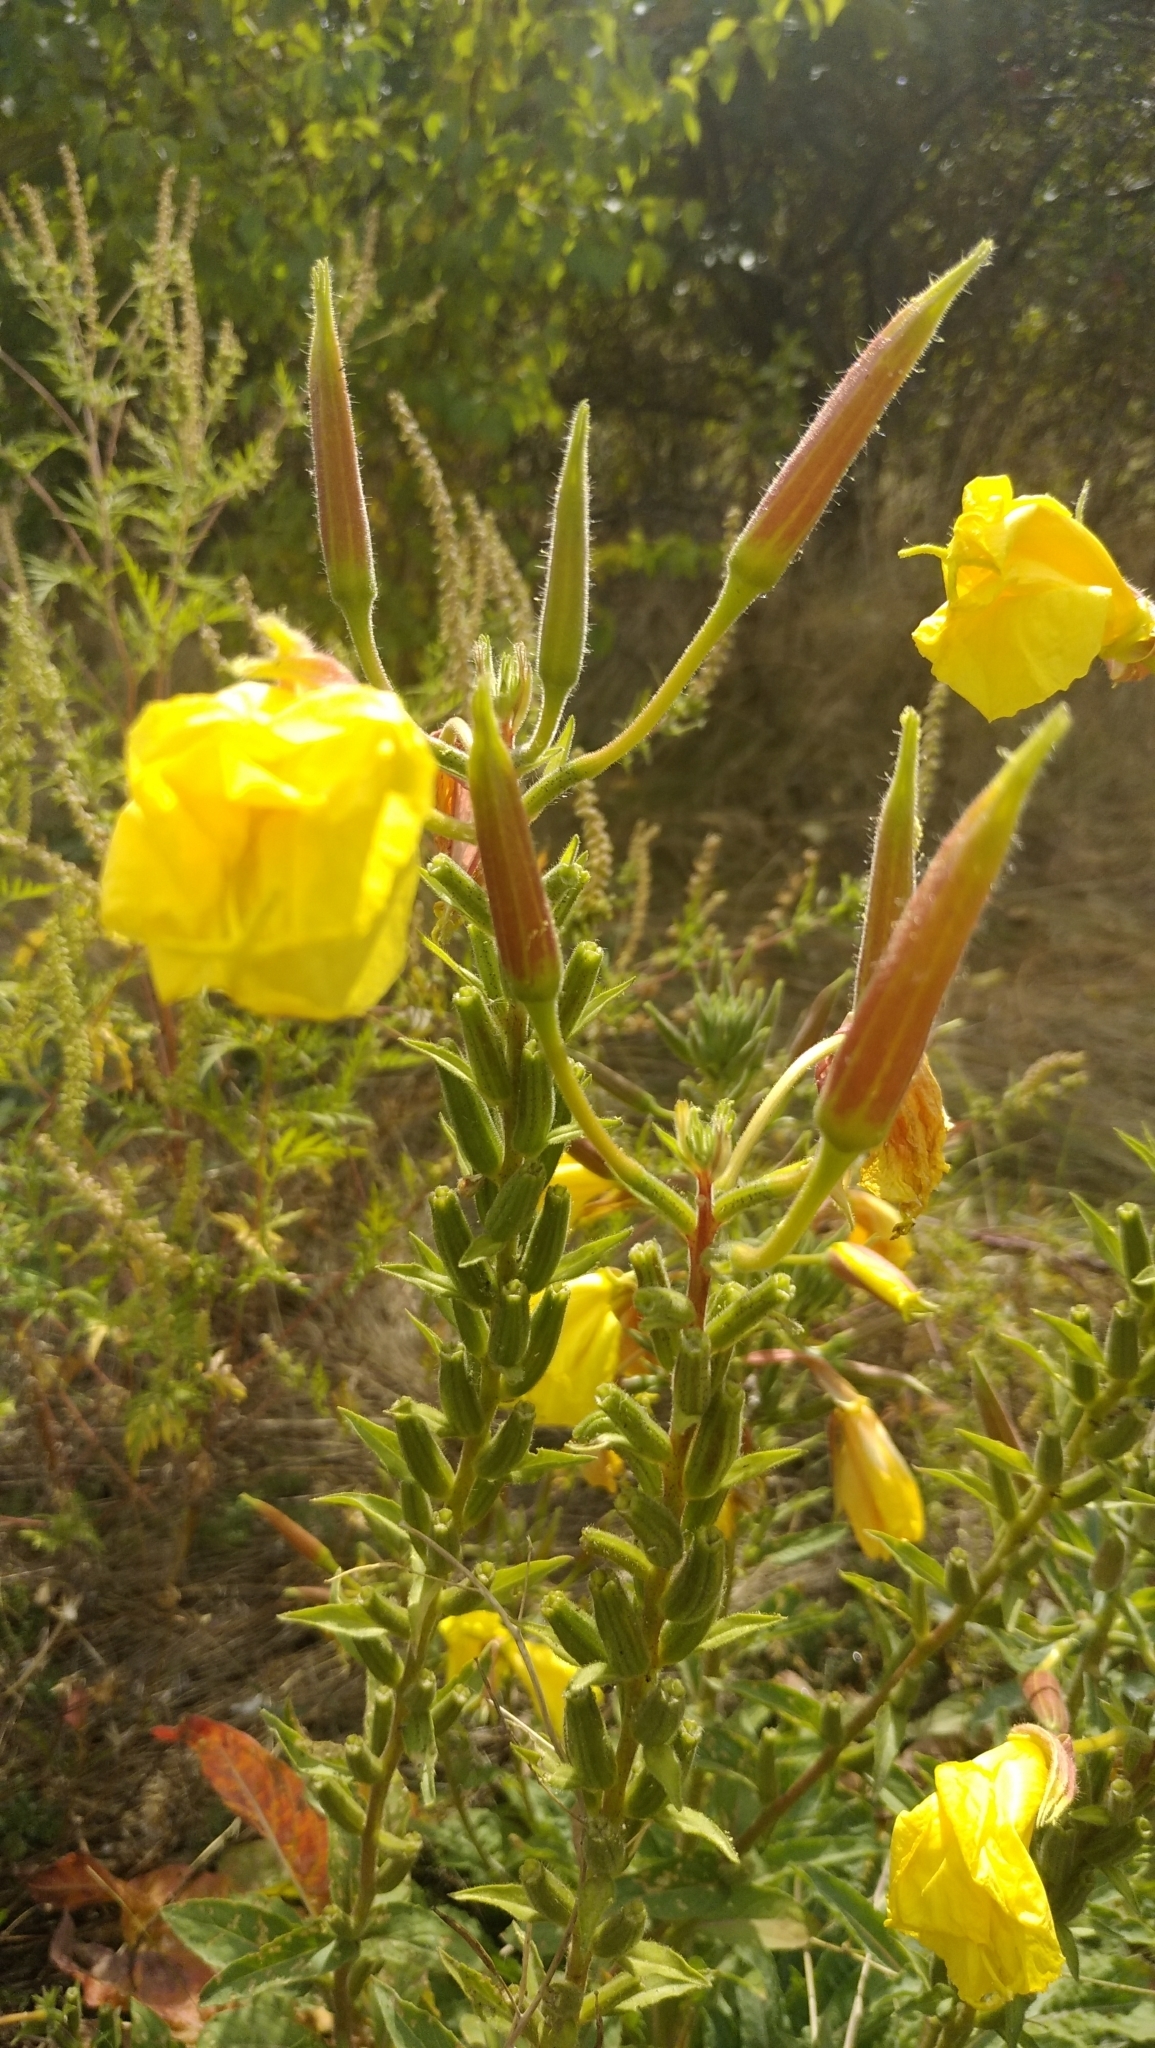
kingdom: Plantae
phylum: Tracheophyta
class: Magnoliopsida
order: Myrtales
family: Onagraceae
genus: Oenothera
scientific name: Oenothera glazioviana
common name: Large-flowered evening-primrose
